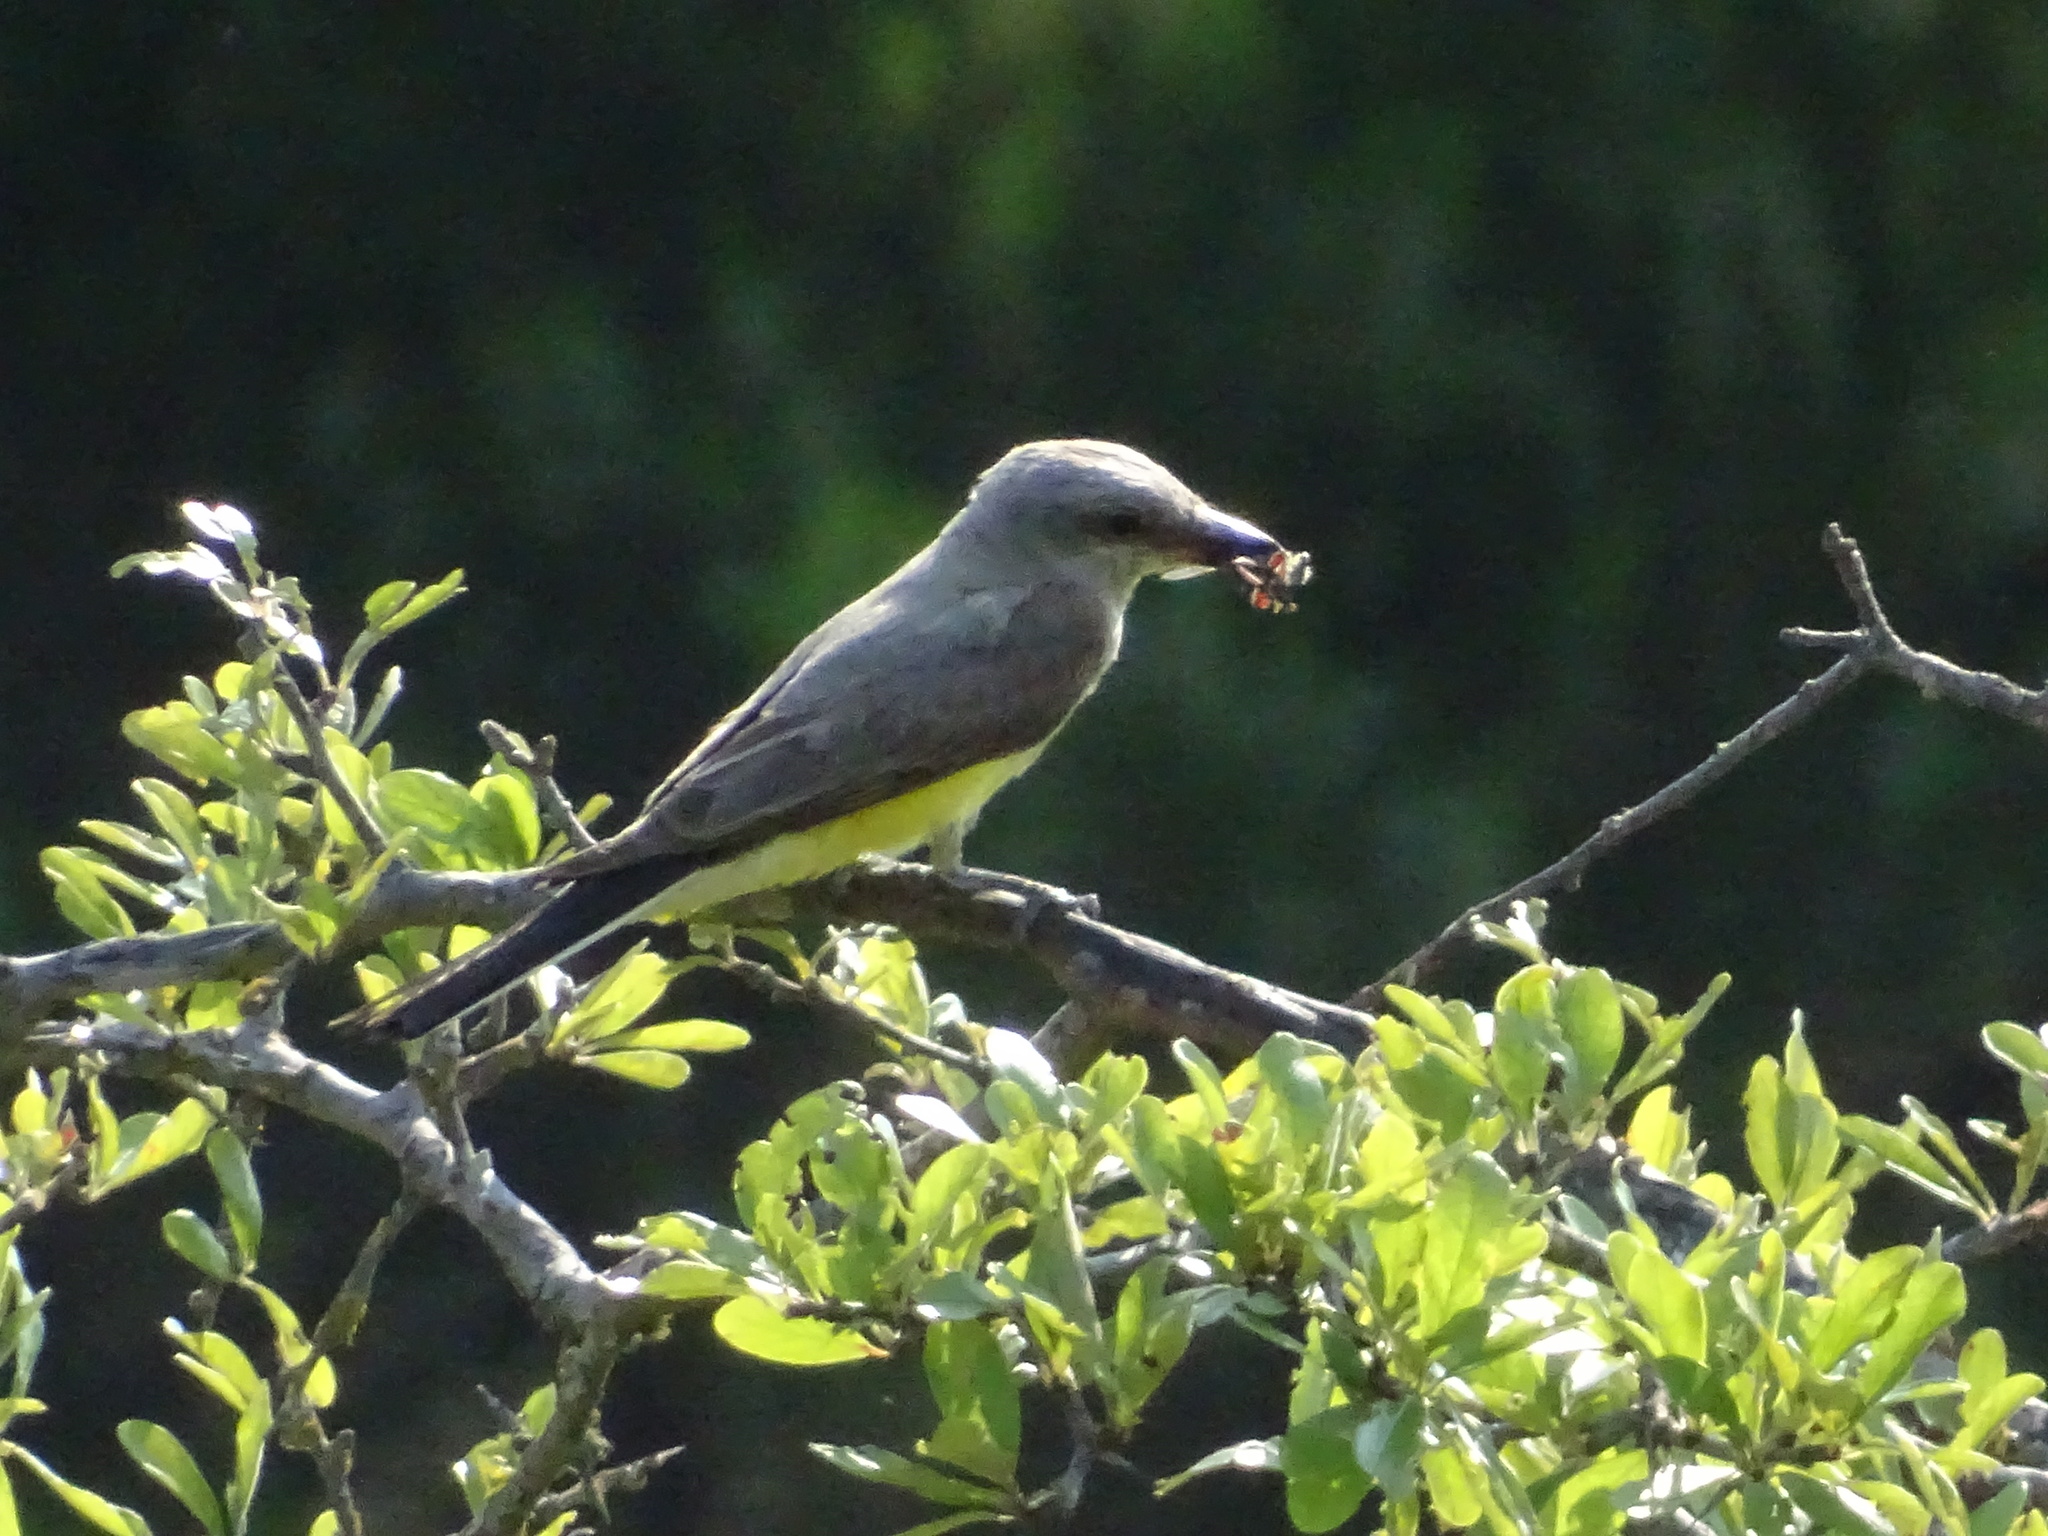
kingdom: Animalia
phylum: Chordata
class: Aves
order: Passeriformes
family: Tyrannidae
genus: Tyrannus
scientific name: Tyrannus verticalis
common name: Western kingbird
